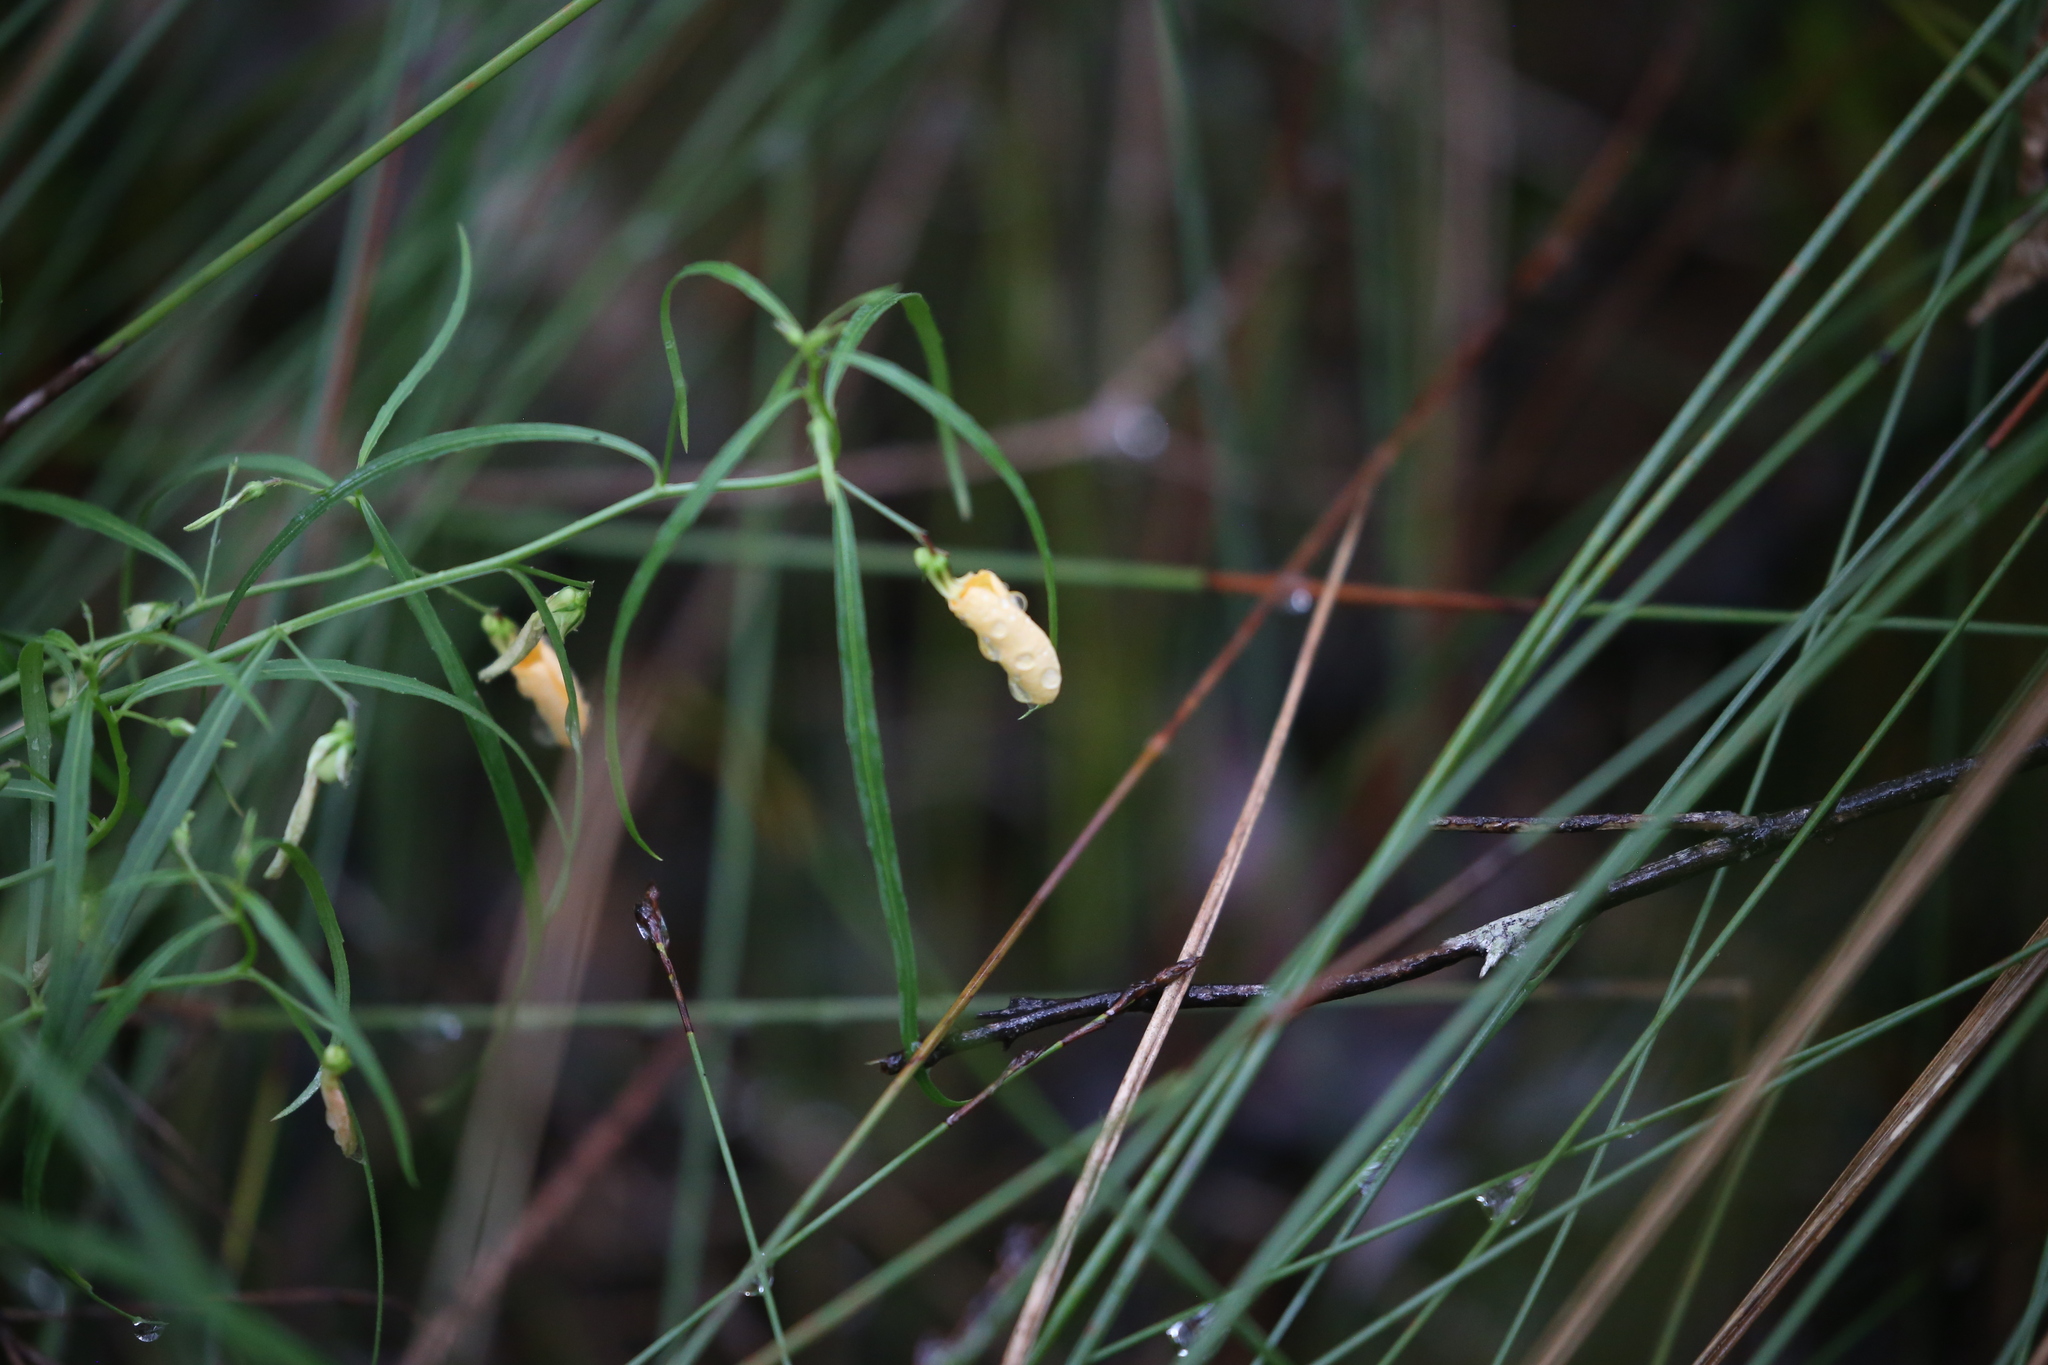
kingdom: Plantae
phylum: Tracheophyta
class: Magnoliopsida
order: Malpighiales
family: Violaceae
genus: Pigea
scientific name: Pigea stellarioides
